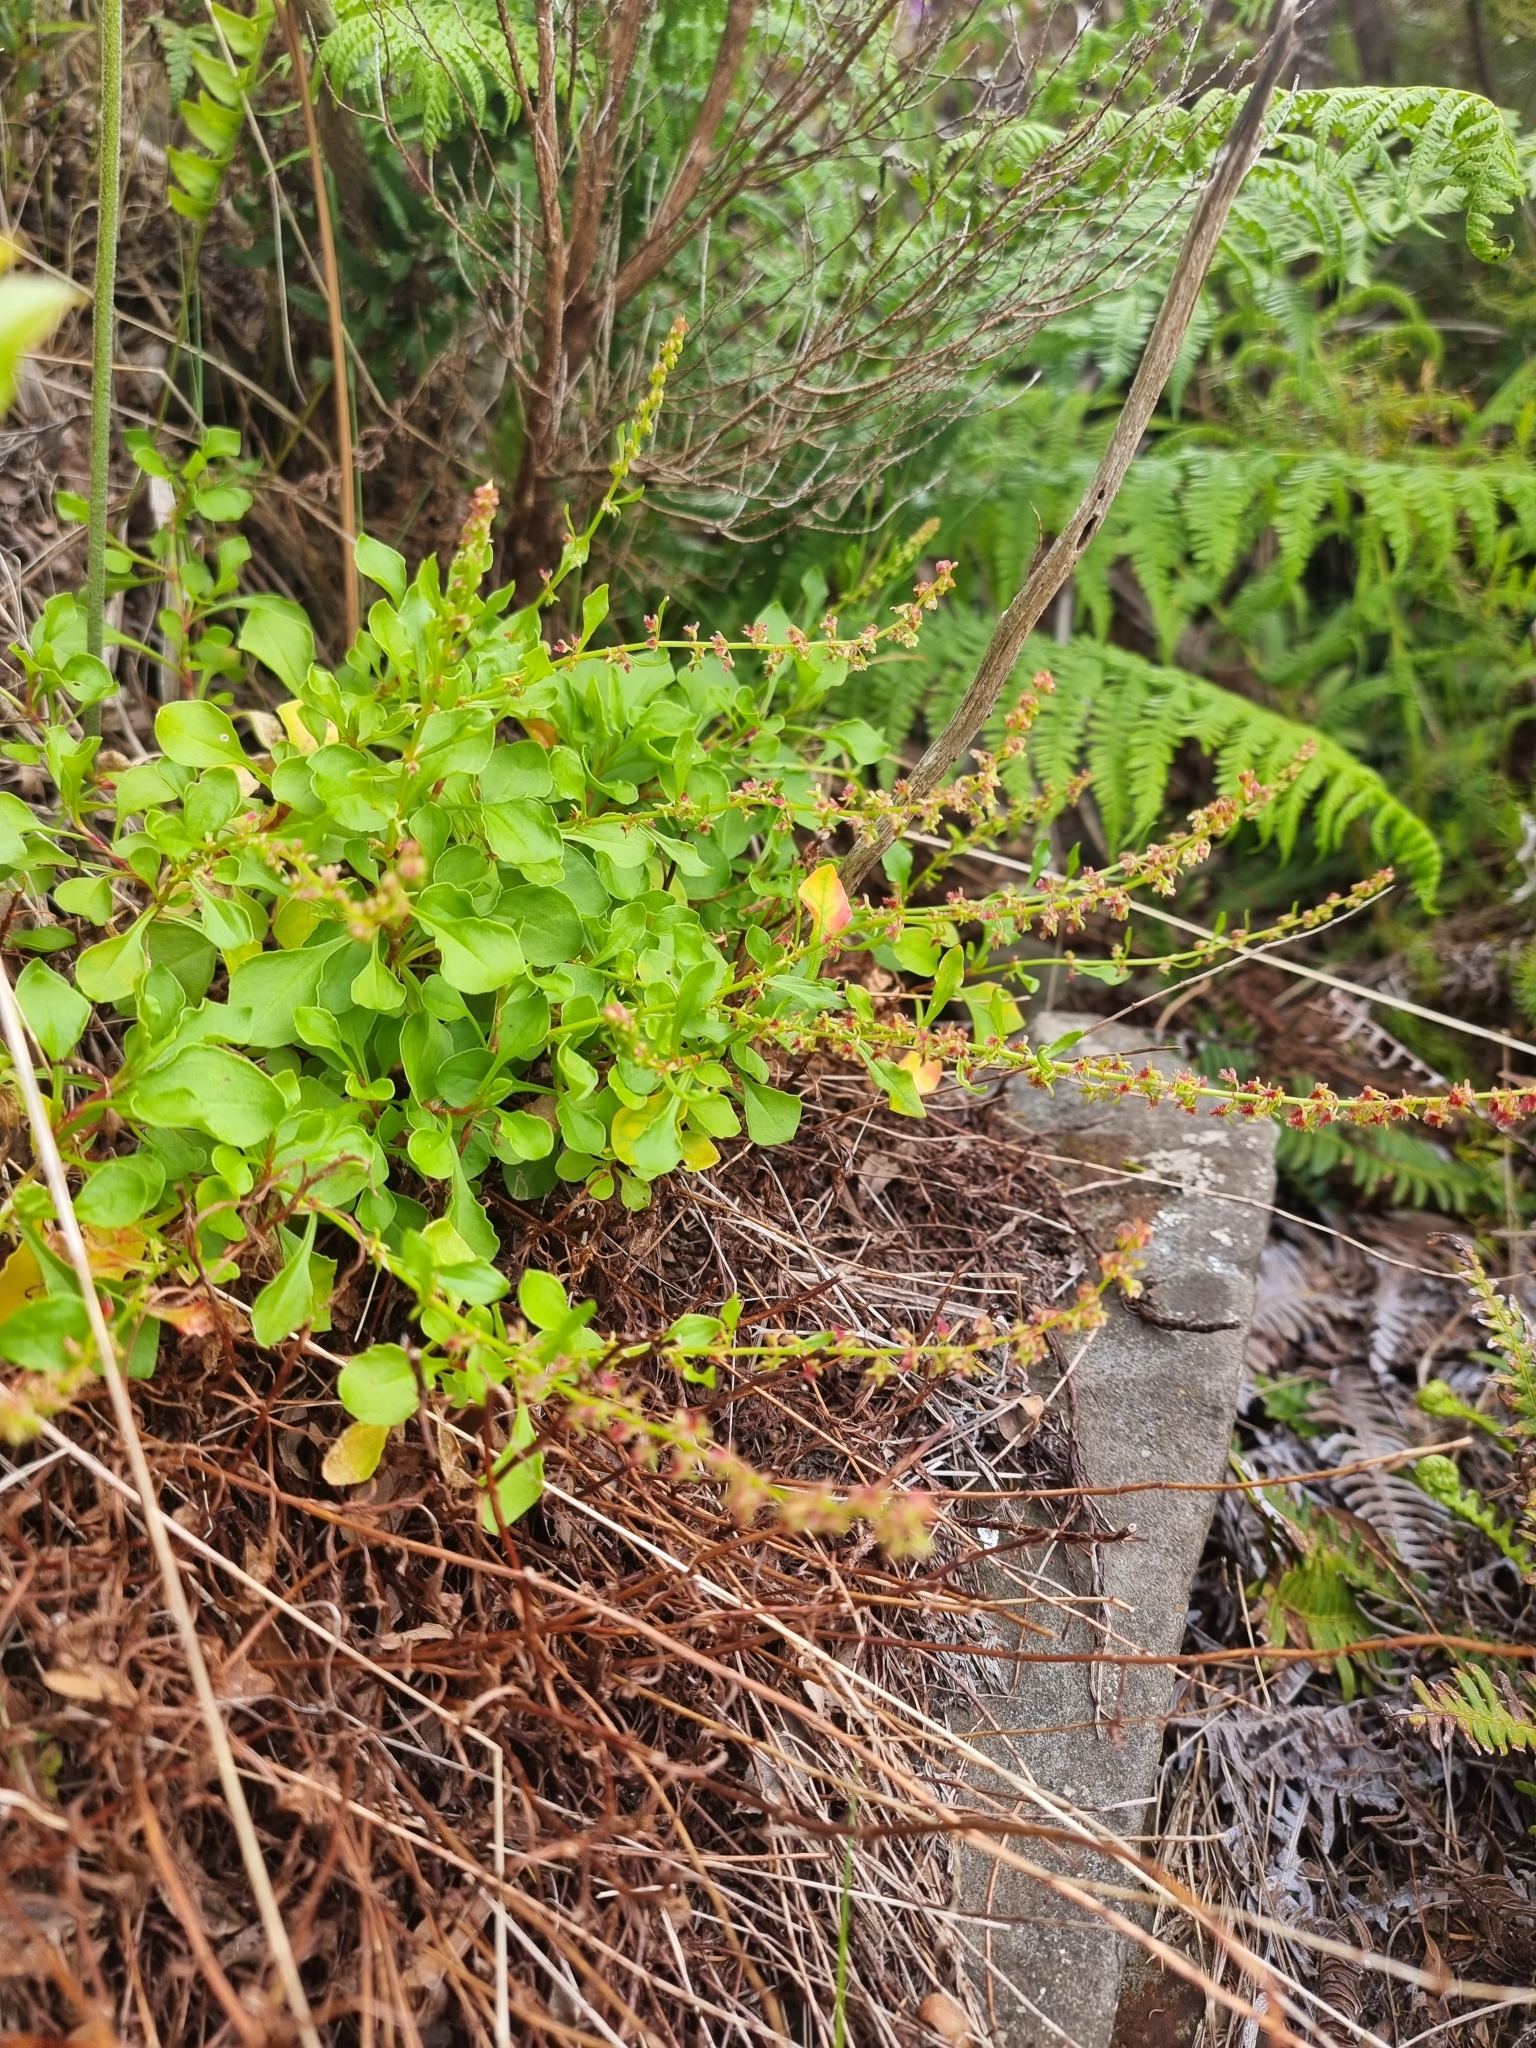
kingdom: Plantae
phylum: Tracheophyta
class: Magnoliopsida
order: Caryophyllales
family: Polygonaceae
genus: Rumex
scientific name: Rumex bucephalophorus
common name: Red dock
